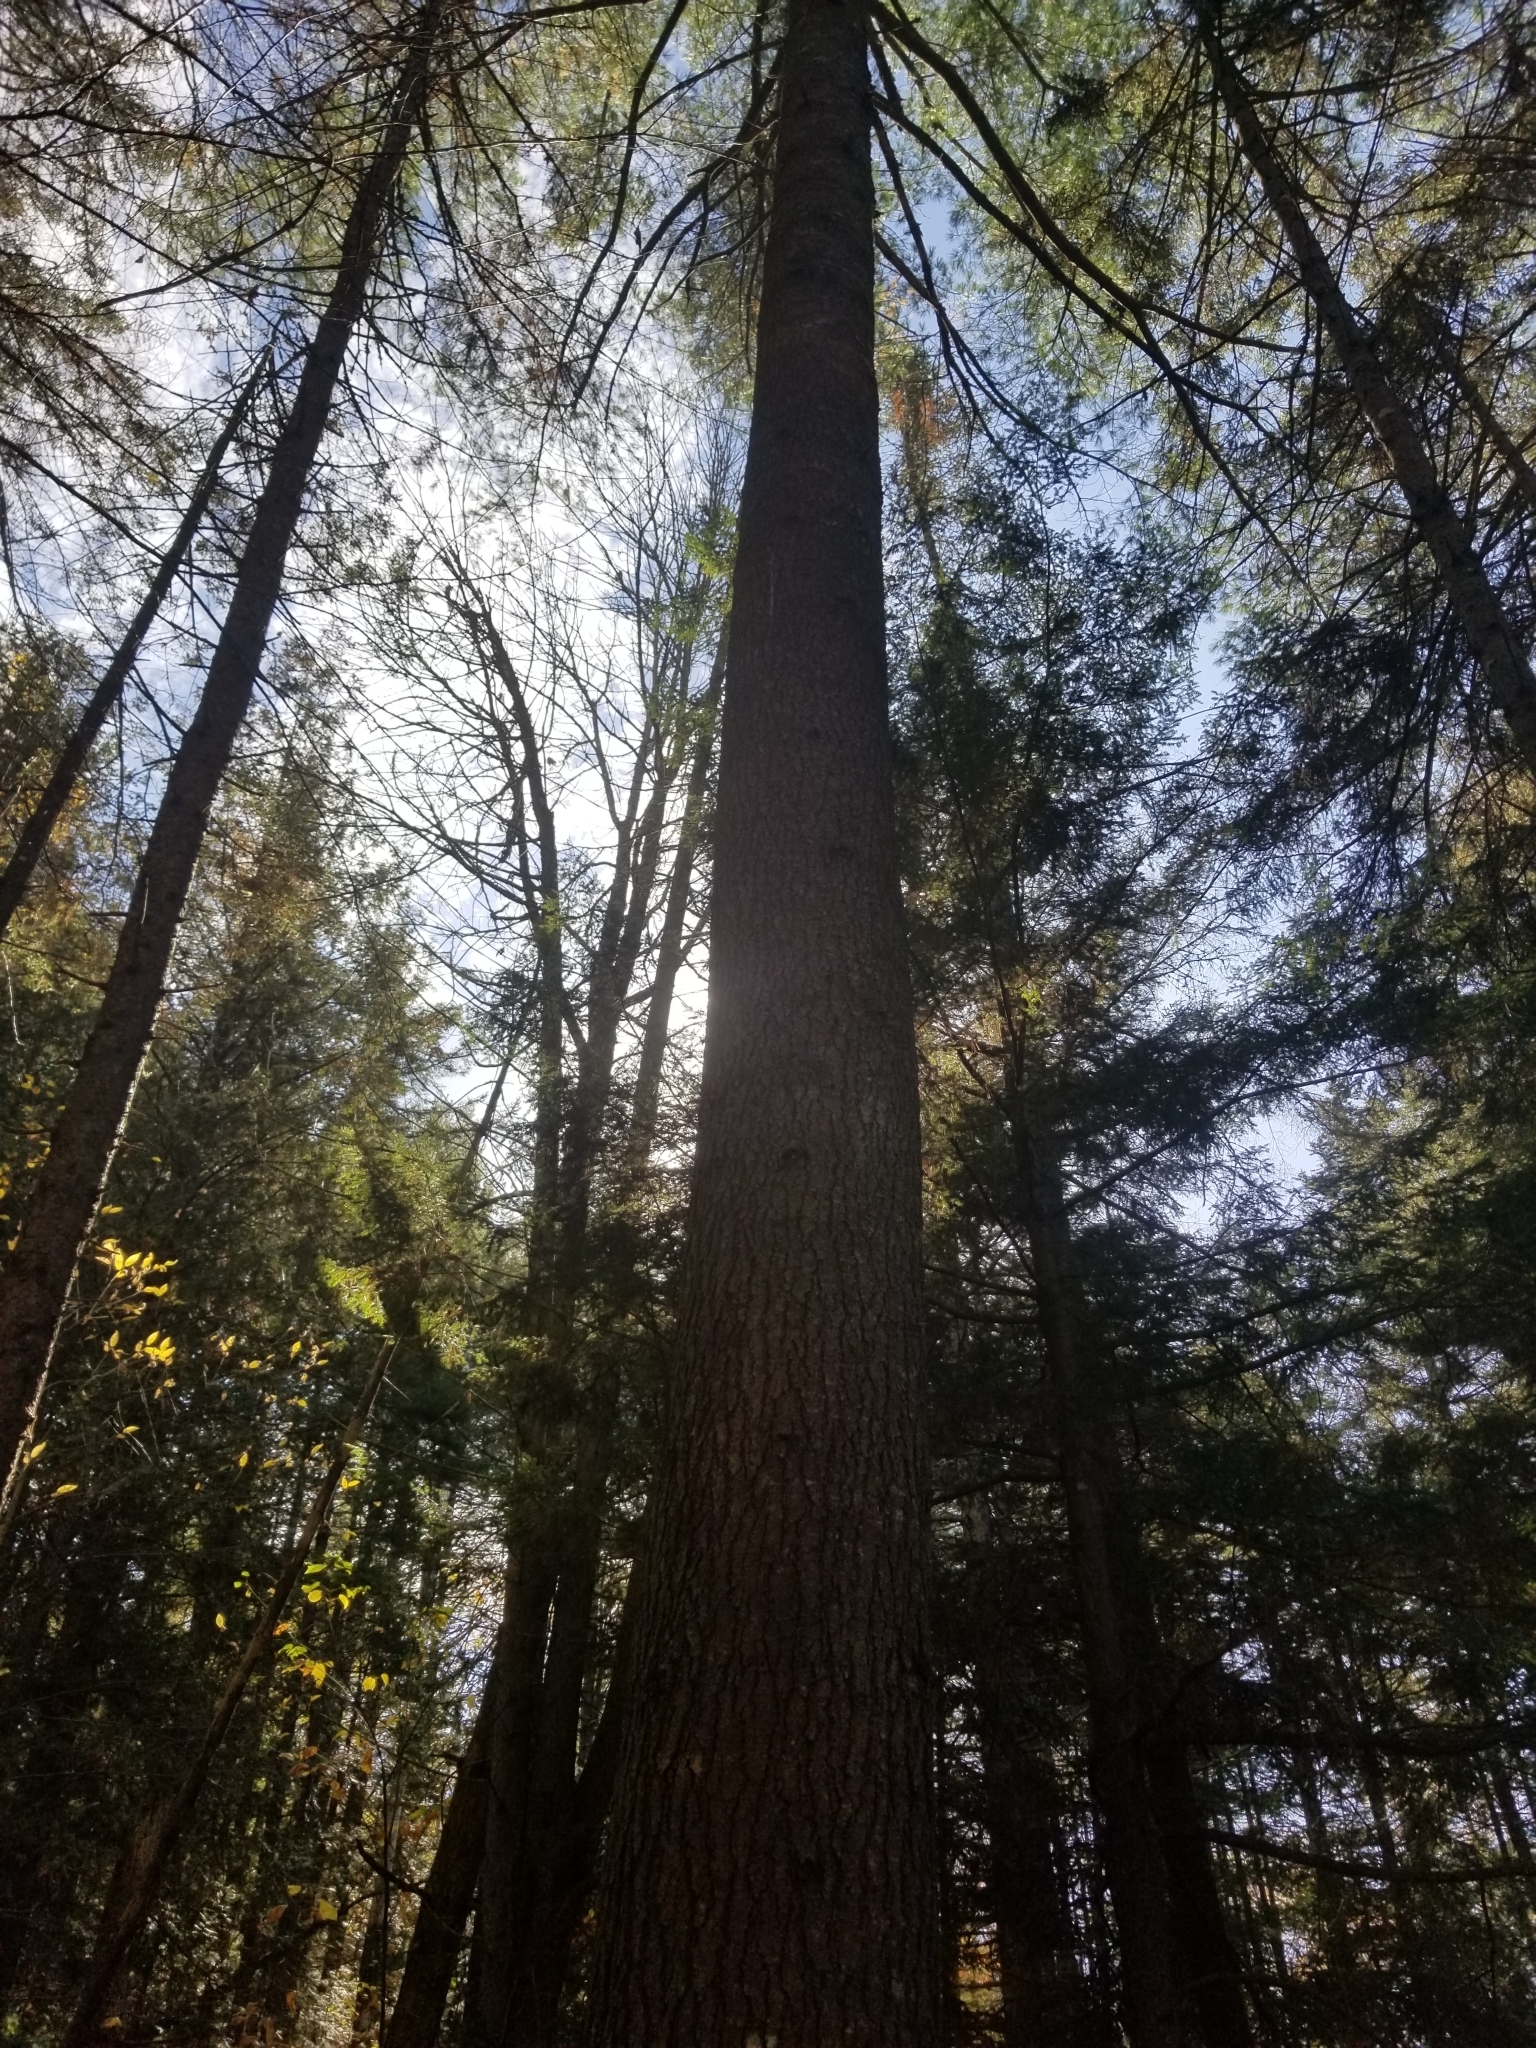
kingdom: Plantae
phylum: Tracheophyta
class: Pinopsida
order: Pinales
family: Pinaceae
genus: Pinus
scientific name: Pinus strobus
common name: Weymouth pine
